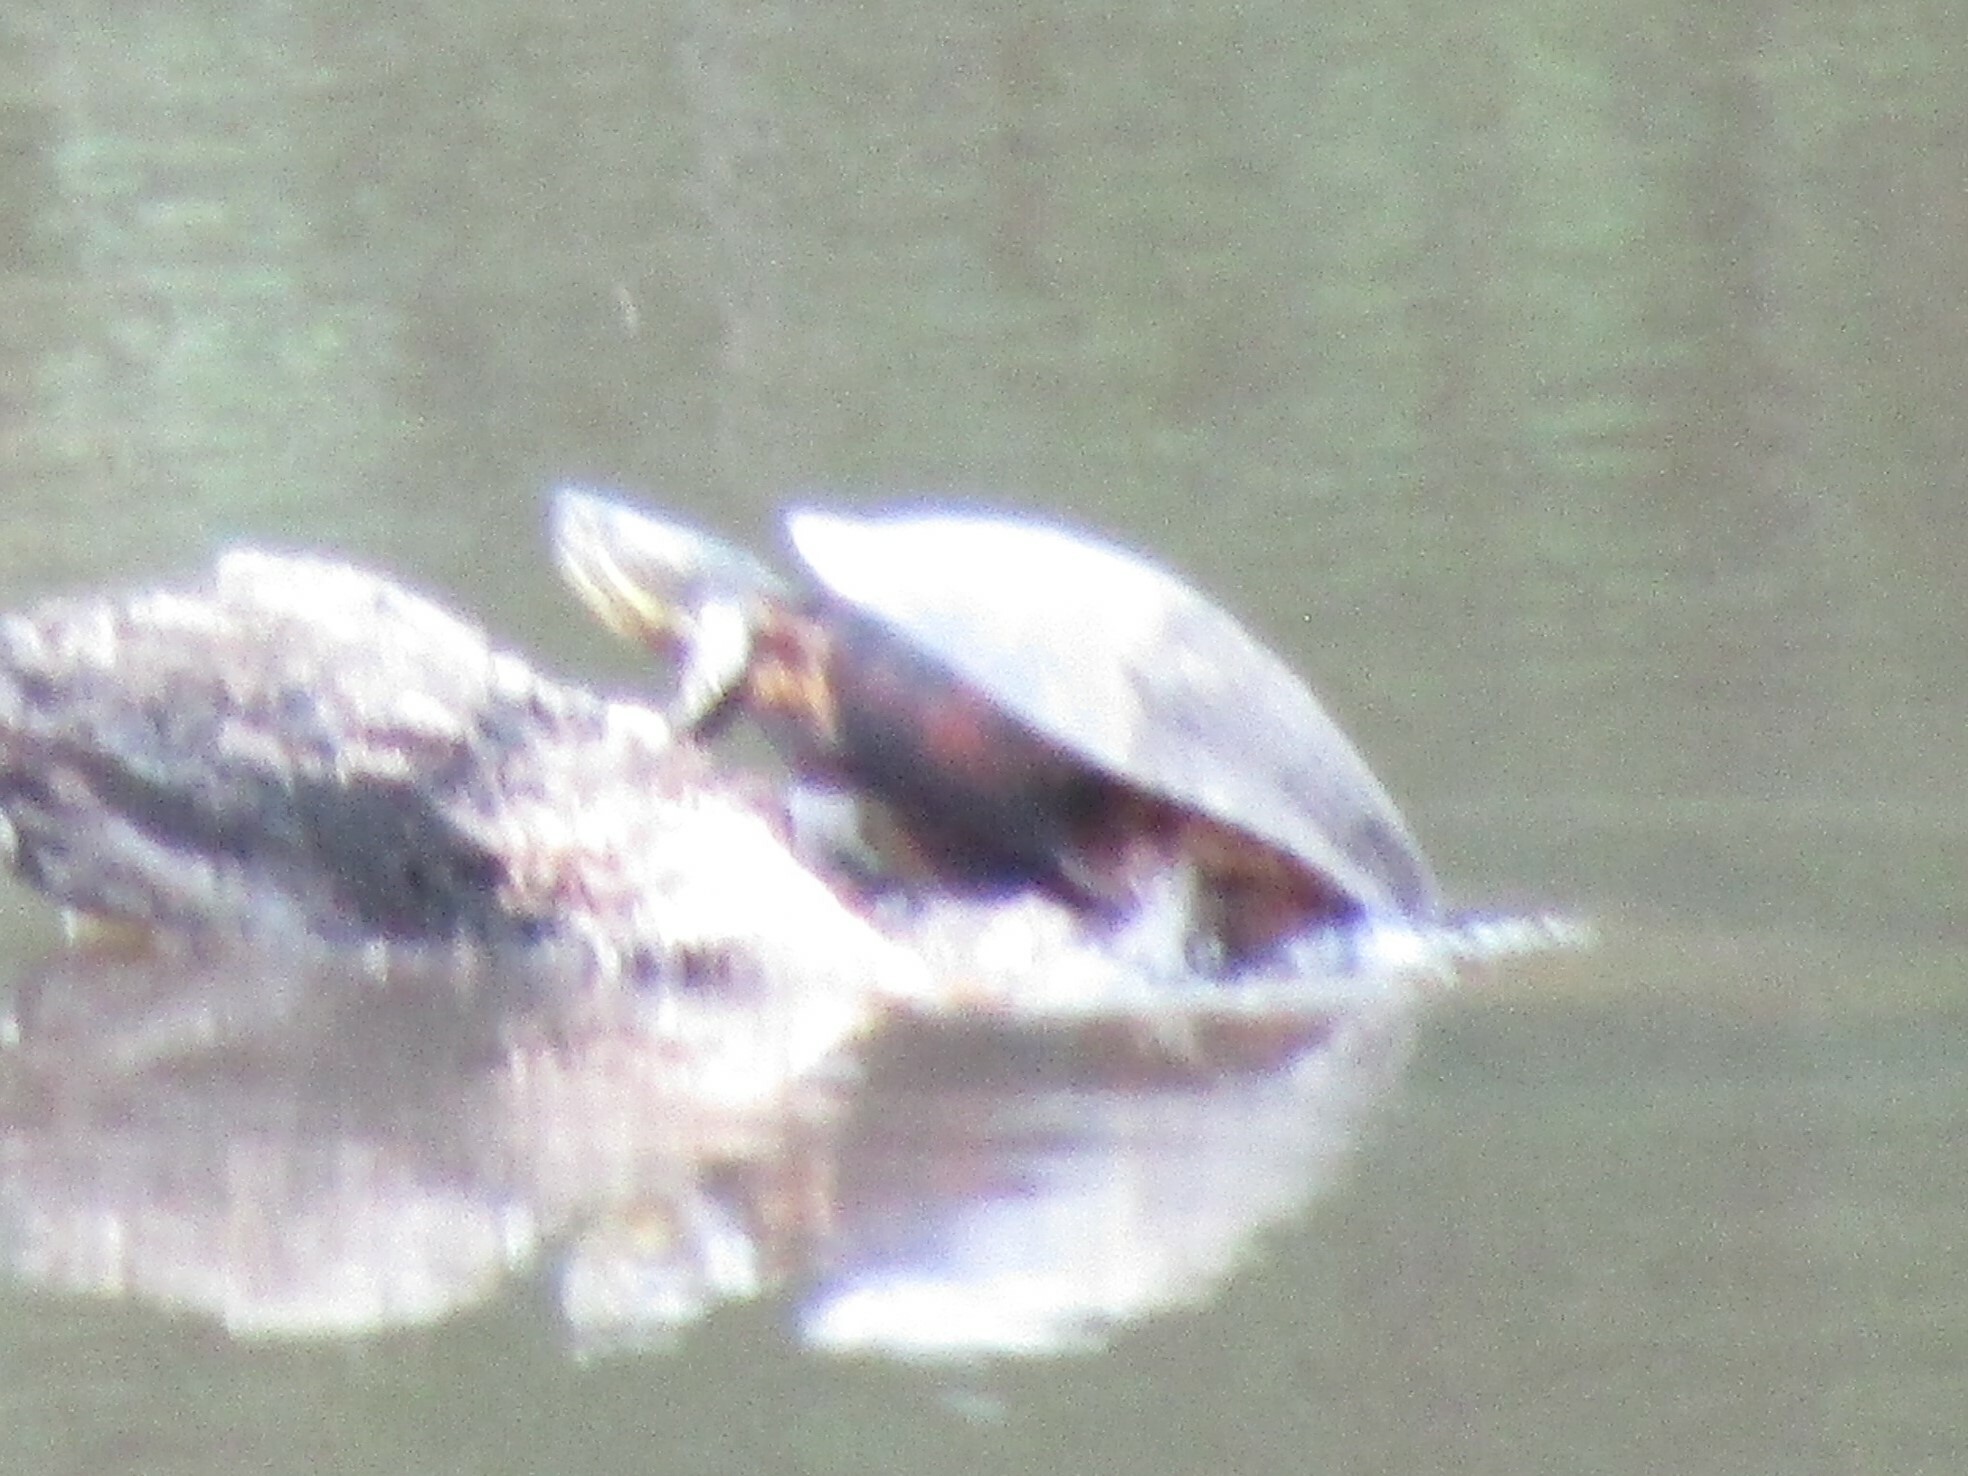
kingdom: Animalia
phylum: Chordata
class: Testudines
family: Emydidae
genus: Trachemys
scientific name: Trachemys grayi
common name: Gray's slider
